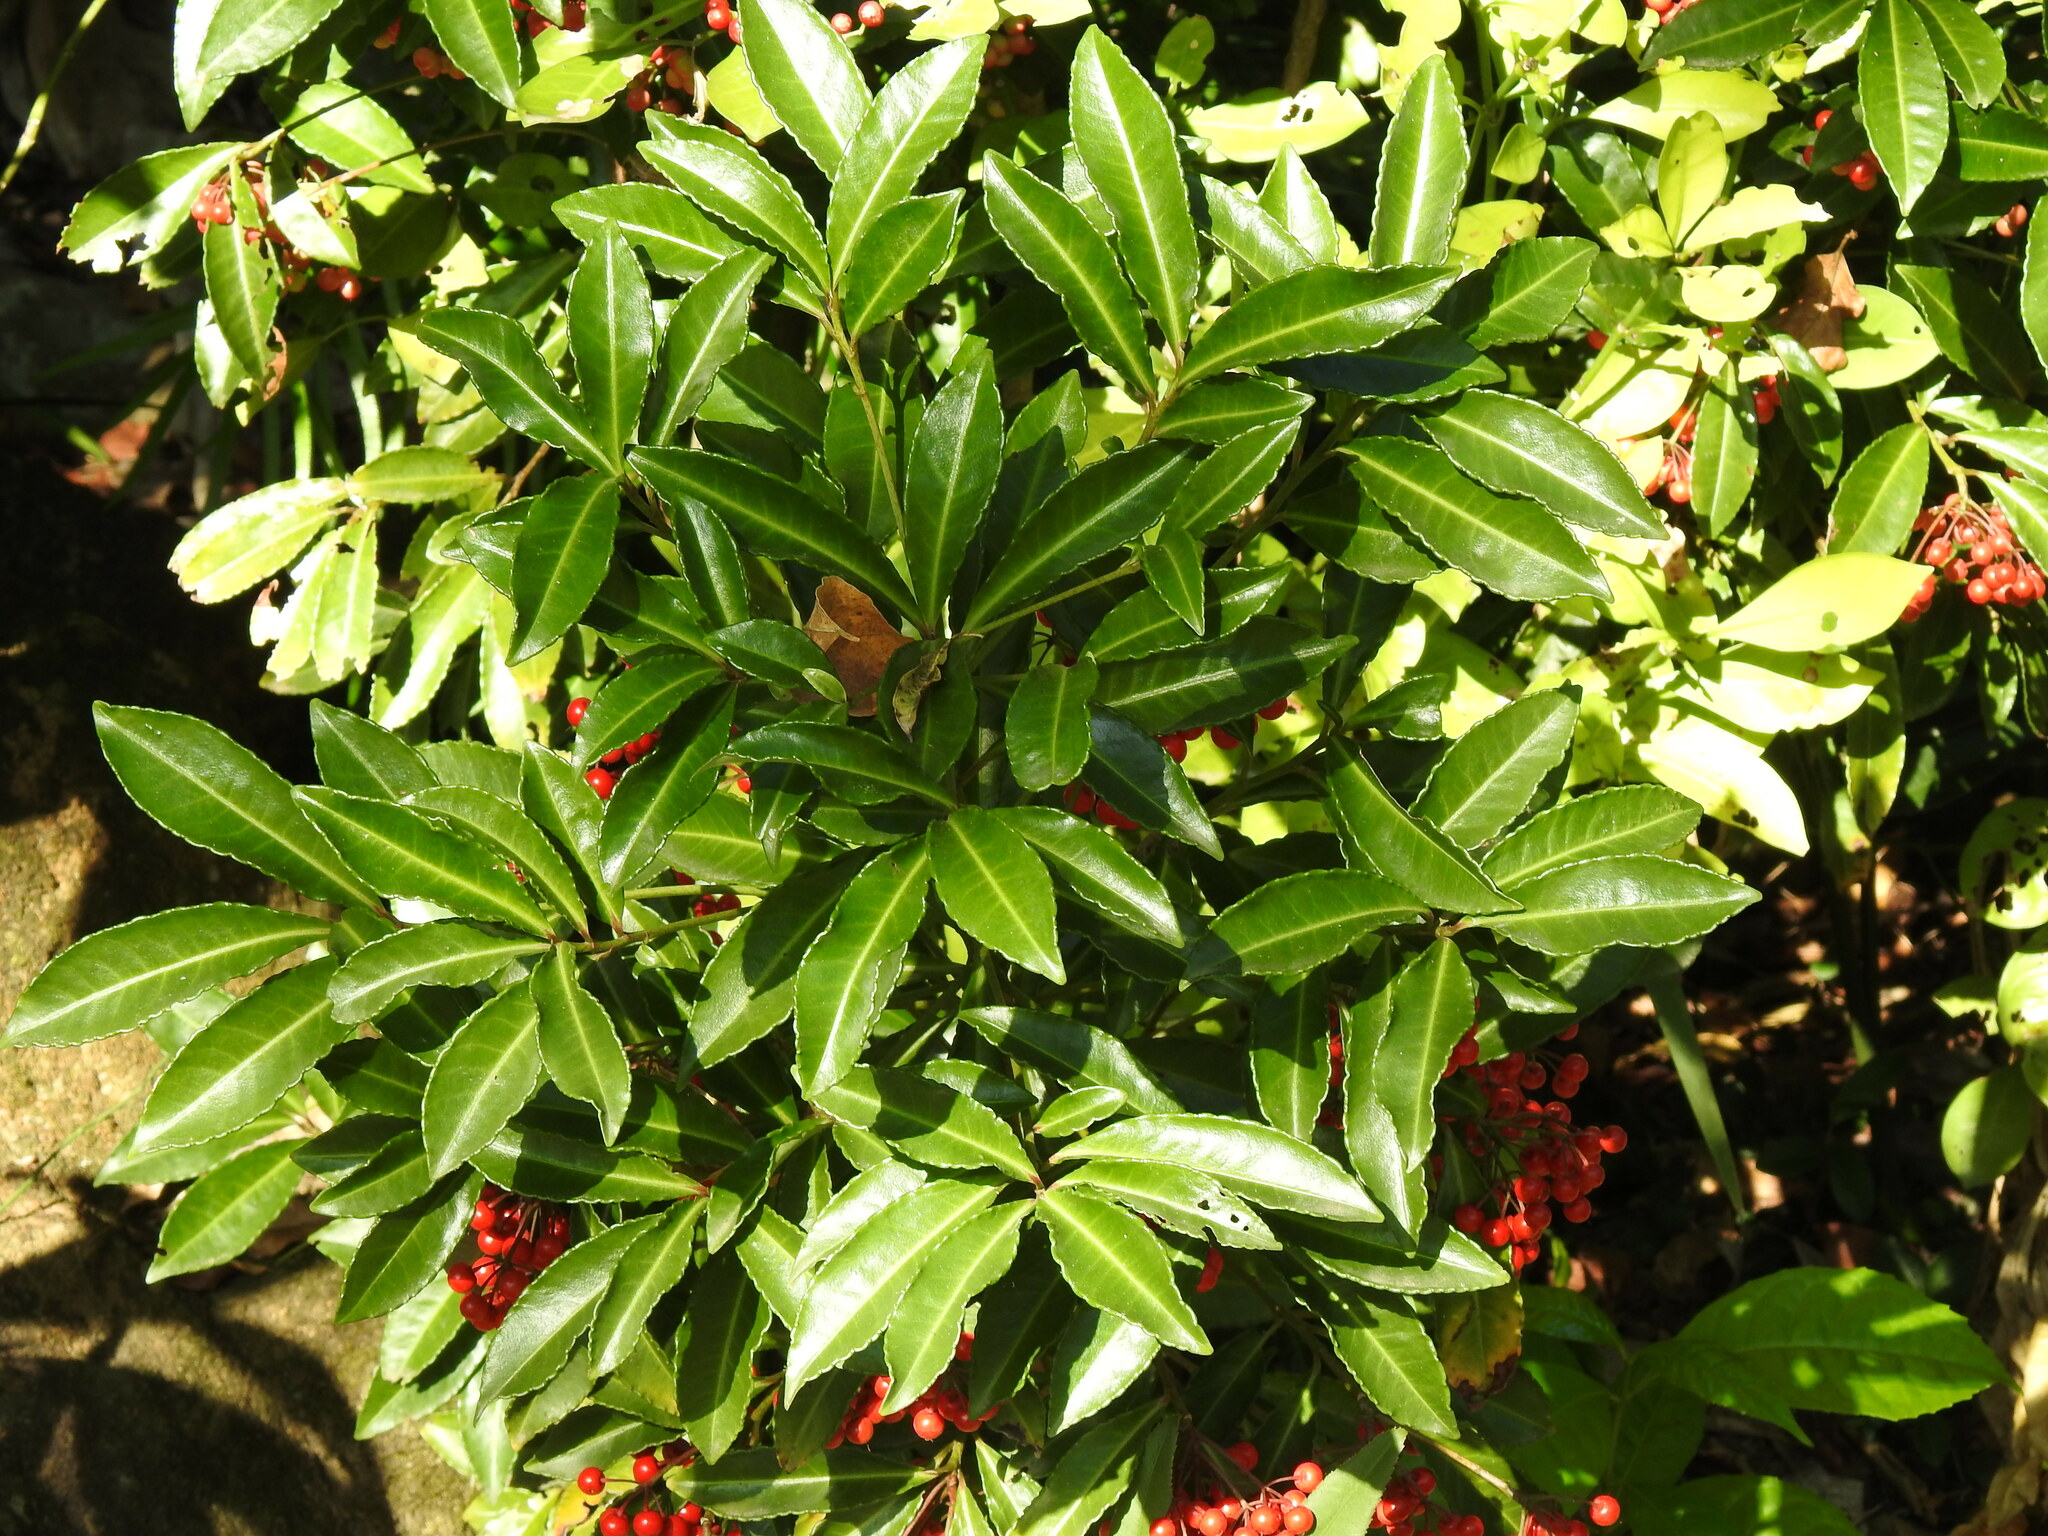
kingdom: Plantae
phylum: Tracheophyta
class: Magnoliopsida
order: Ericales
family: Primulaceae
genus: Ardisia
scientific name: Ardisia crenata
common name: Hen's eyes
